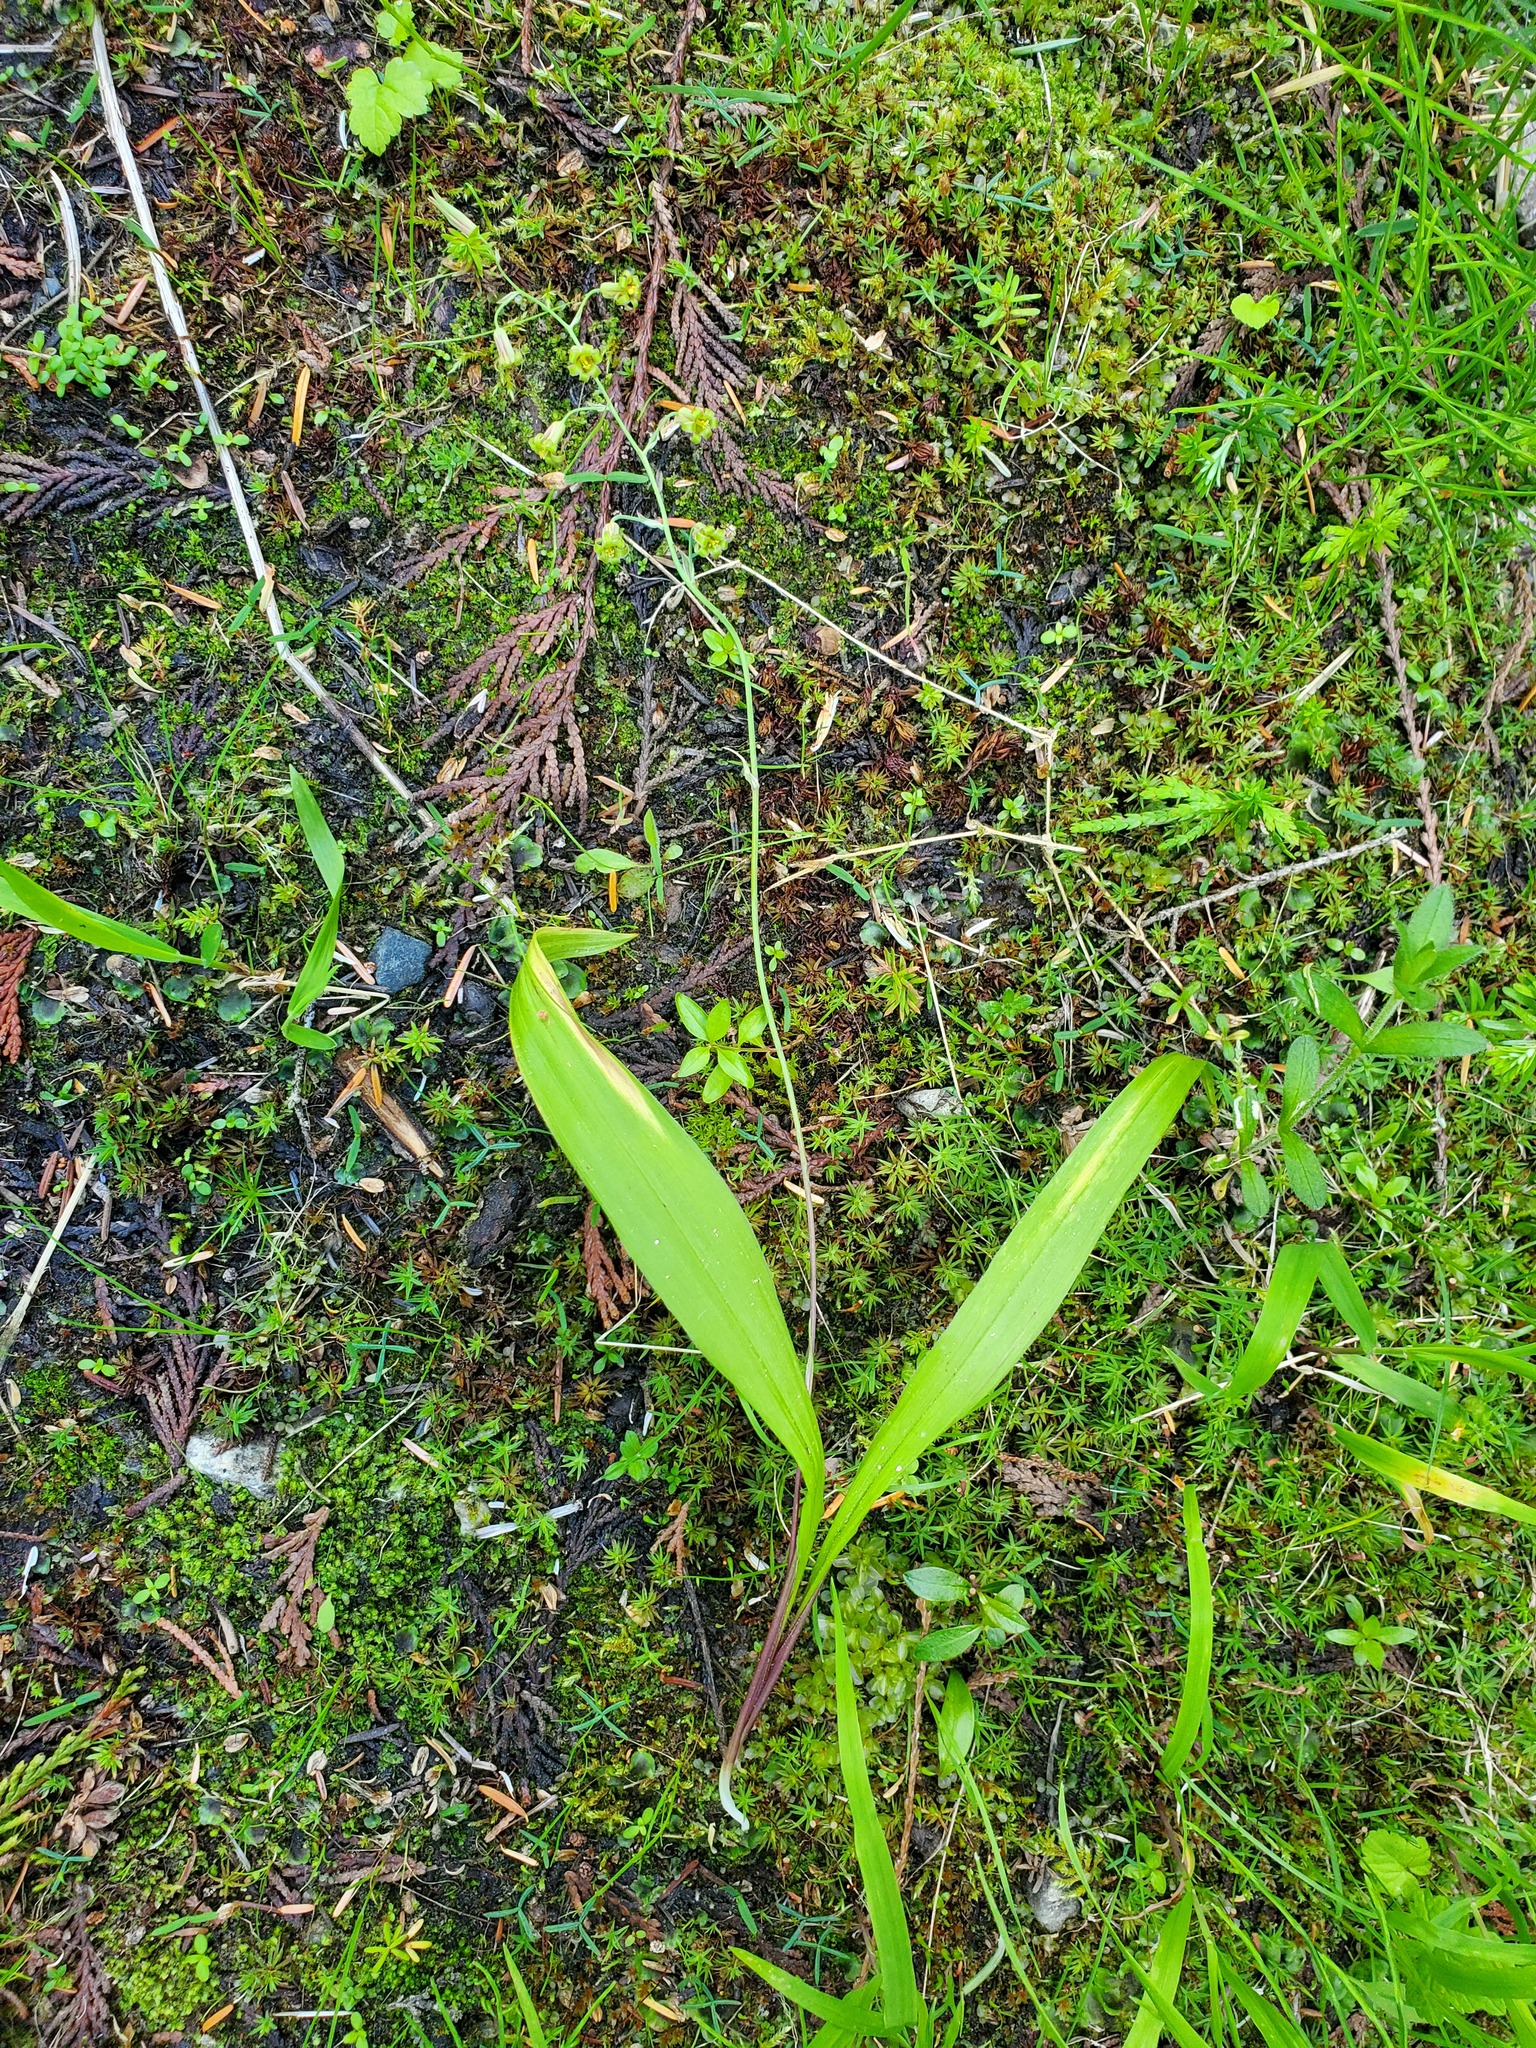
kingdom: Plantae
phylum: Tracheophyta
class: Liliopsida
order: Liliales
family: Melanthiaceae
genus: Anticlea
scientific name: Anticlea occidentalis
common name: Bronze-bells
